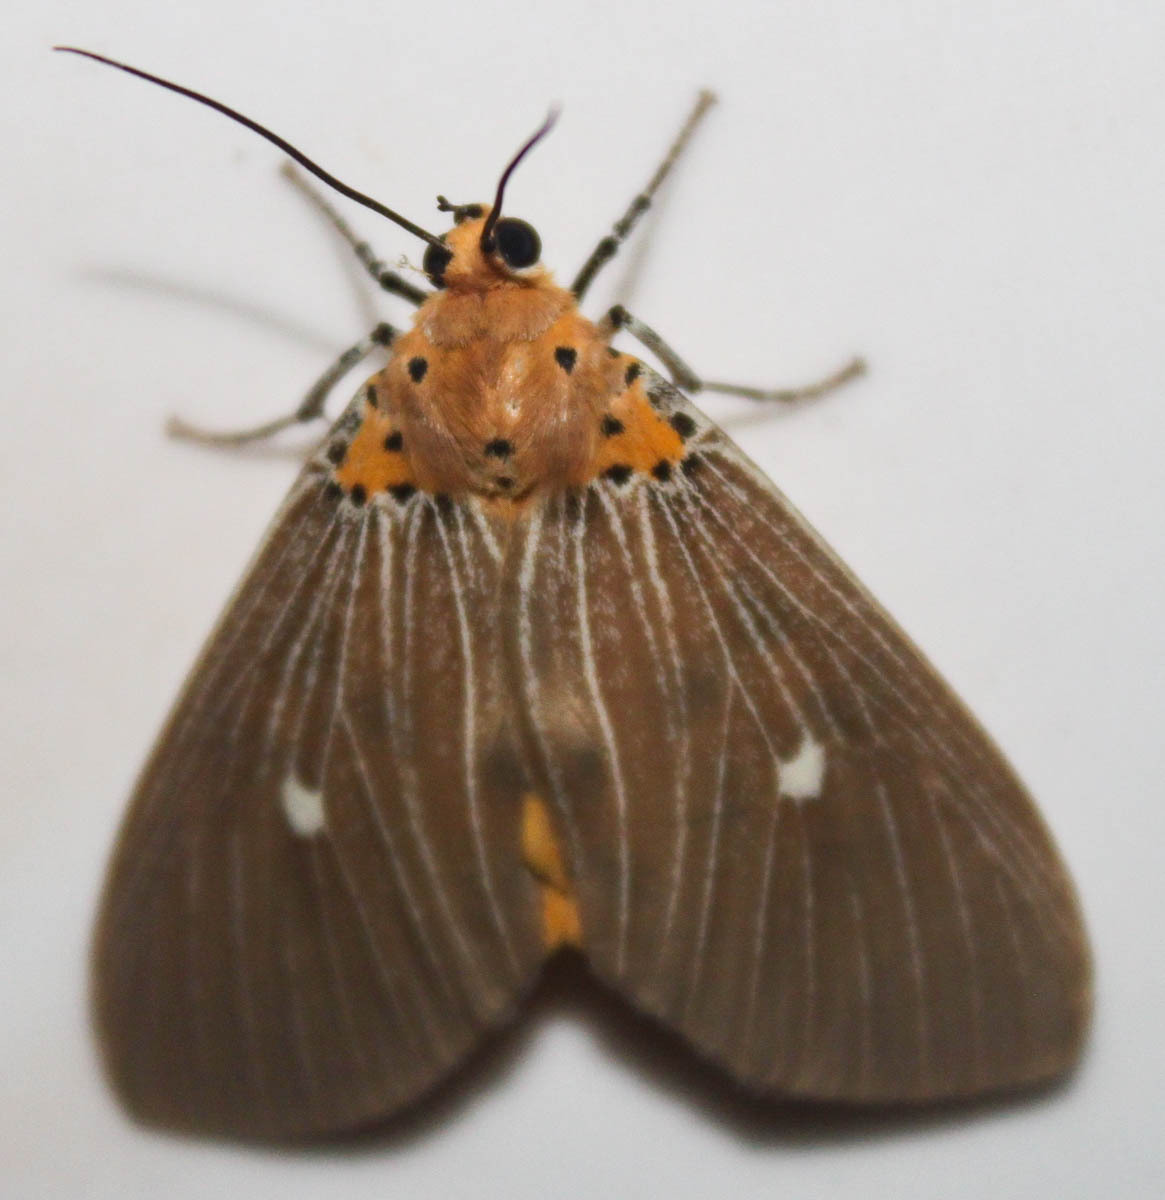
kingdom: Animalia
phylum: Arthropoda
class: Insecta
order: Lepidoptera
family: Erebidae
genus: Asota
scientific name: Asota caricae
